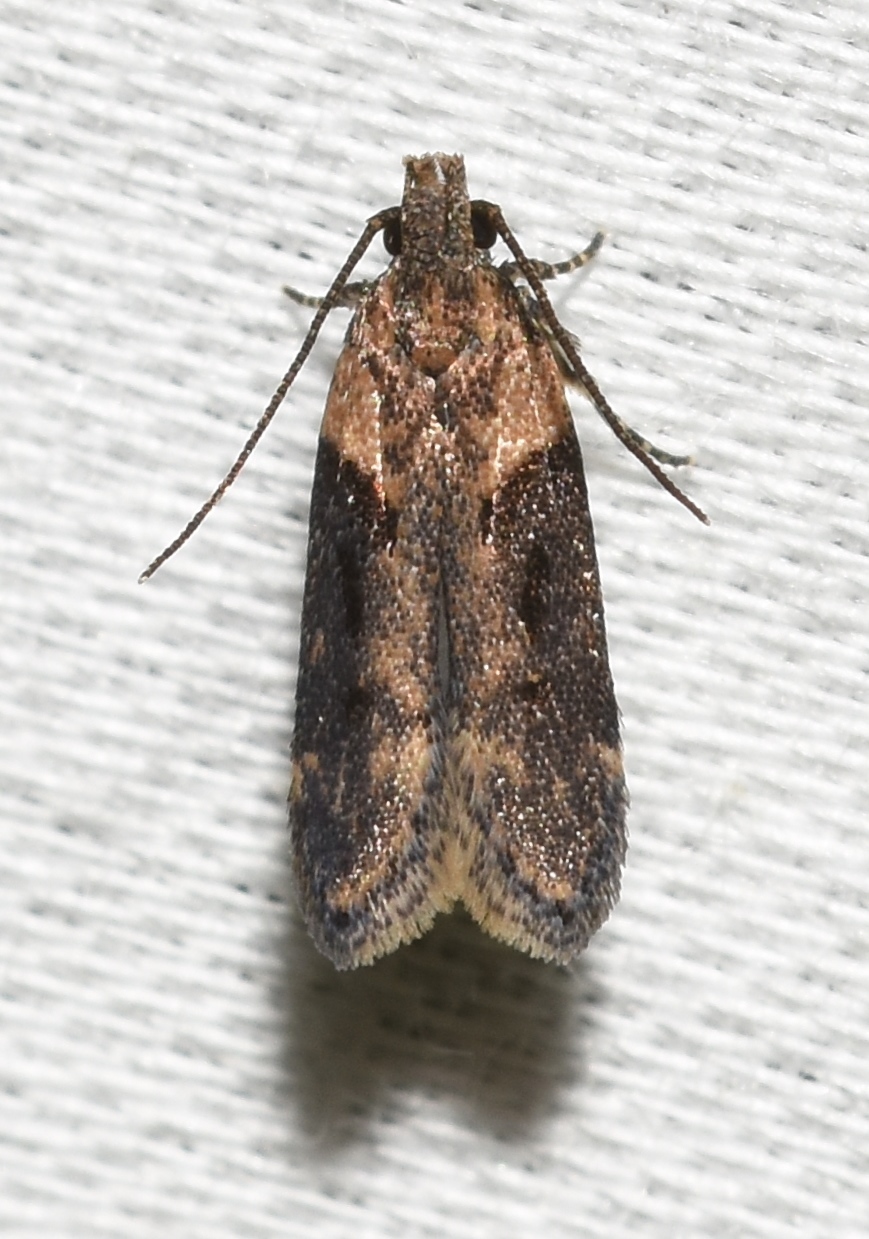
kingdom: Animalia
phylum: Arthropoda
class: Insecta
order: Lepidoptera
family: Gelechiidae
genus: Chionodes
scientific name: Chionodes mediofuscella
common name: Black-smudged chionodes moth
